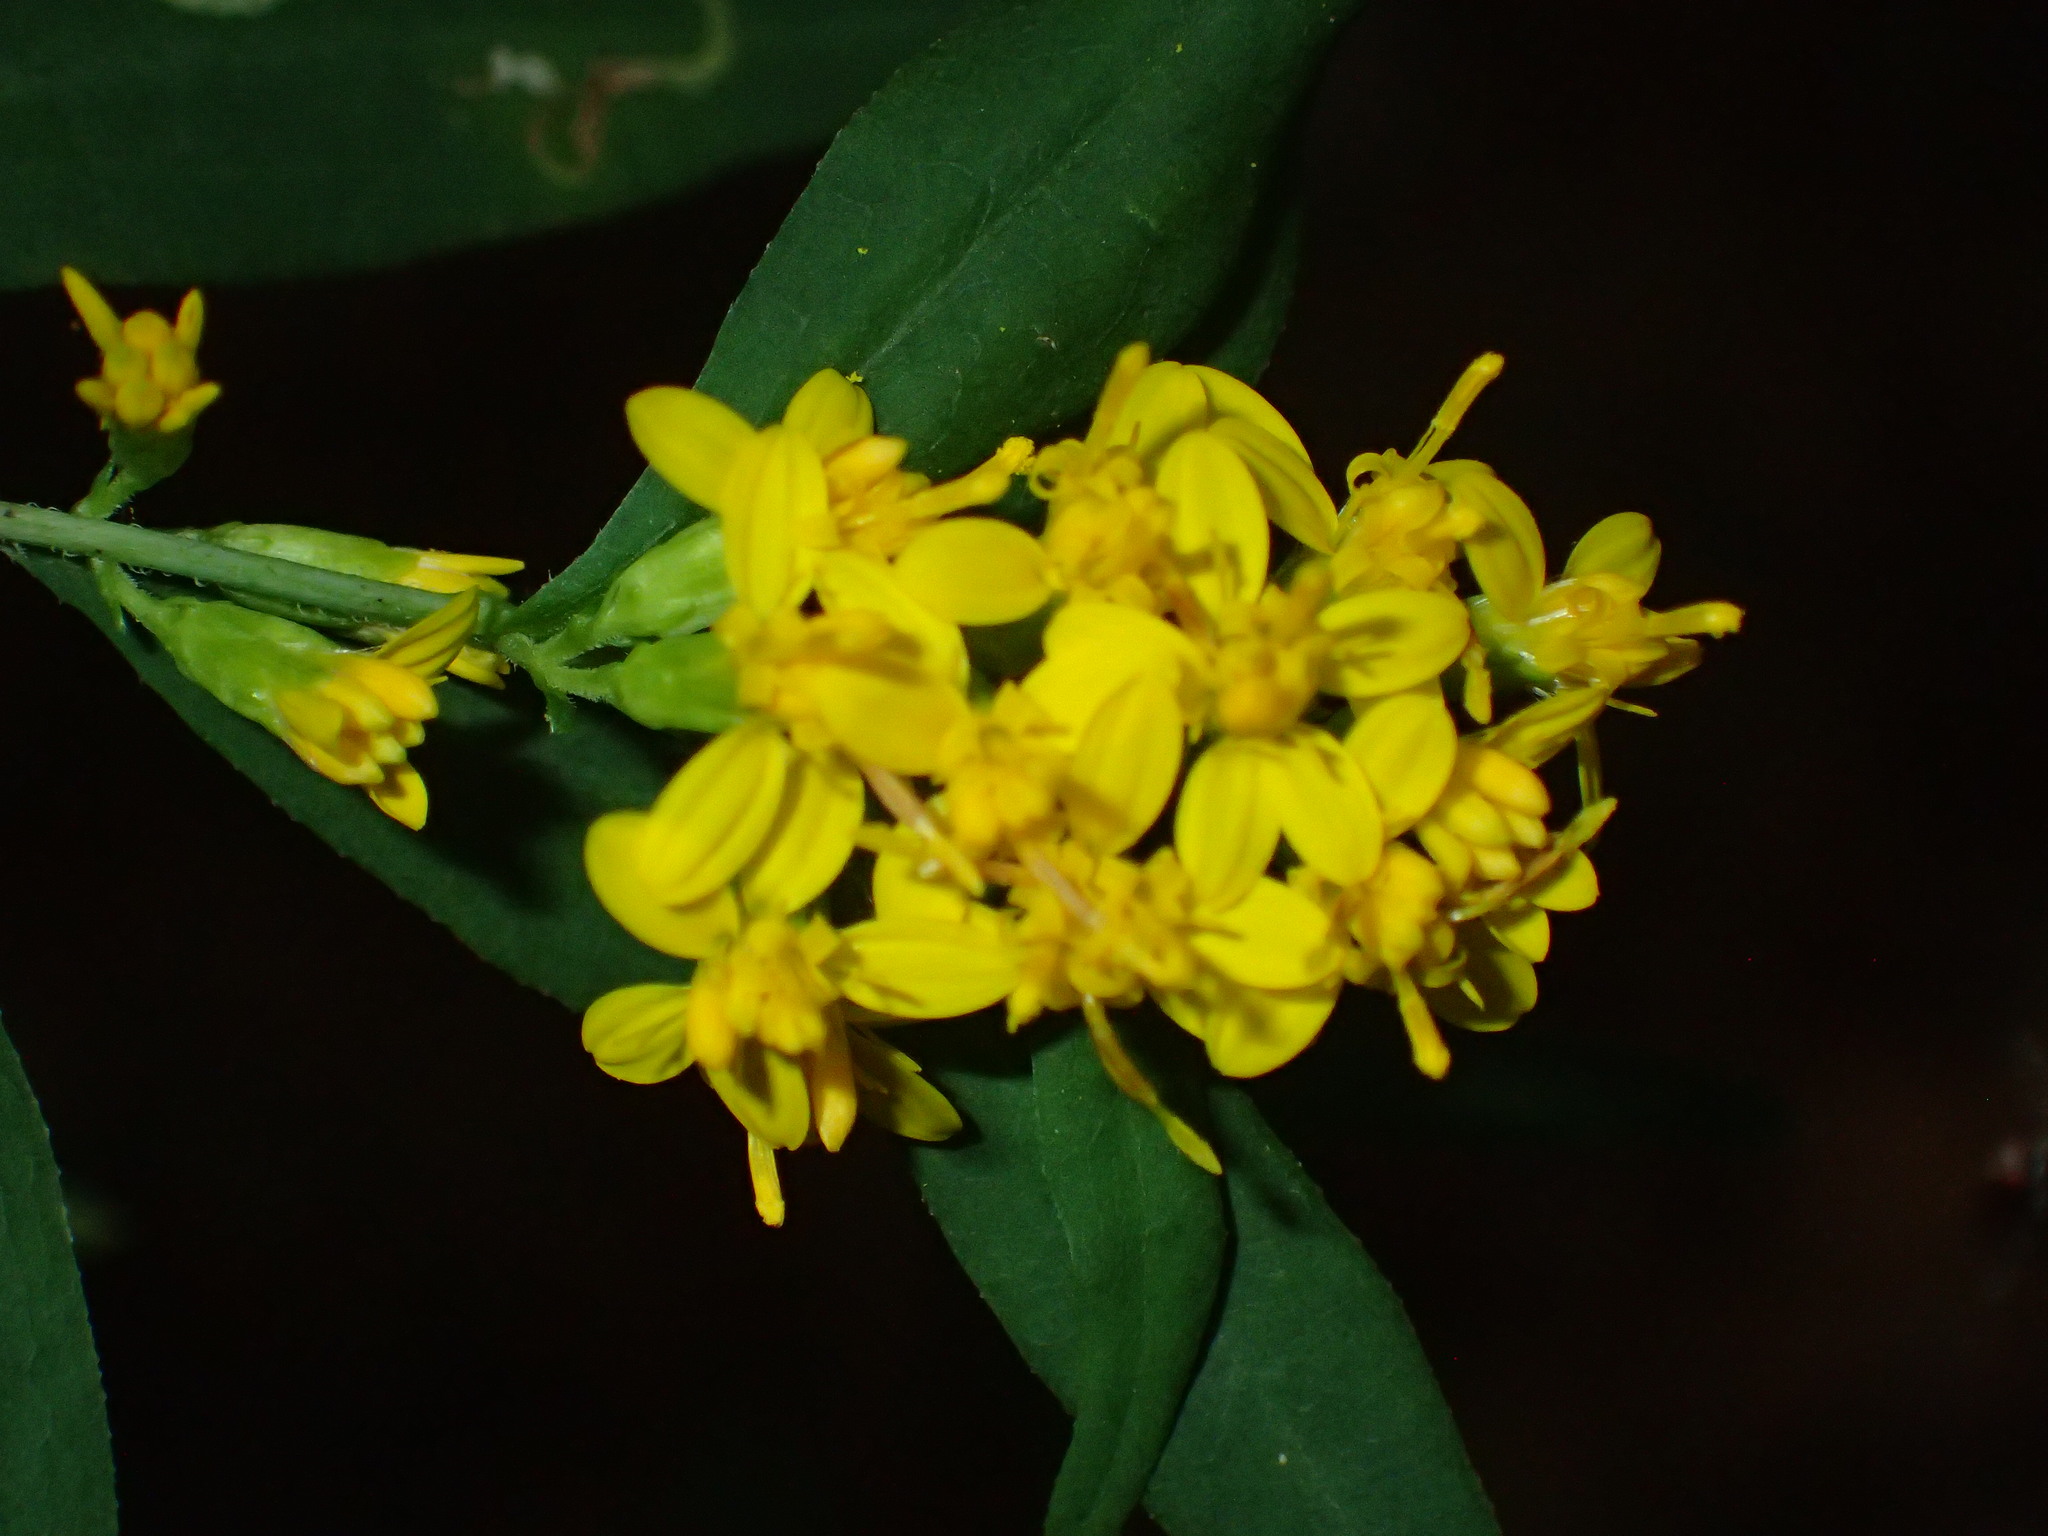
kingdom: Plantae
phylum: Tracheophyta
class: Magnoliopsida
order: Asterales
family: Asteraceae
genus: Solidago
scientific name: Solidago caesia
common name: Woodland goldenrod
